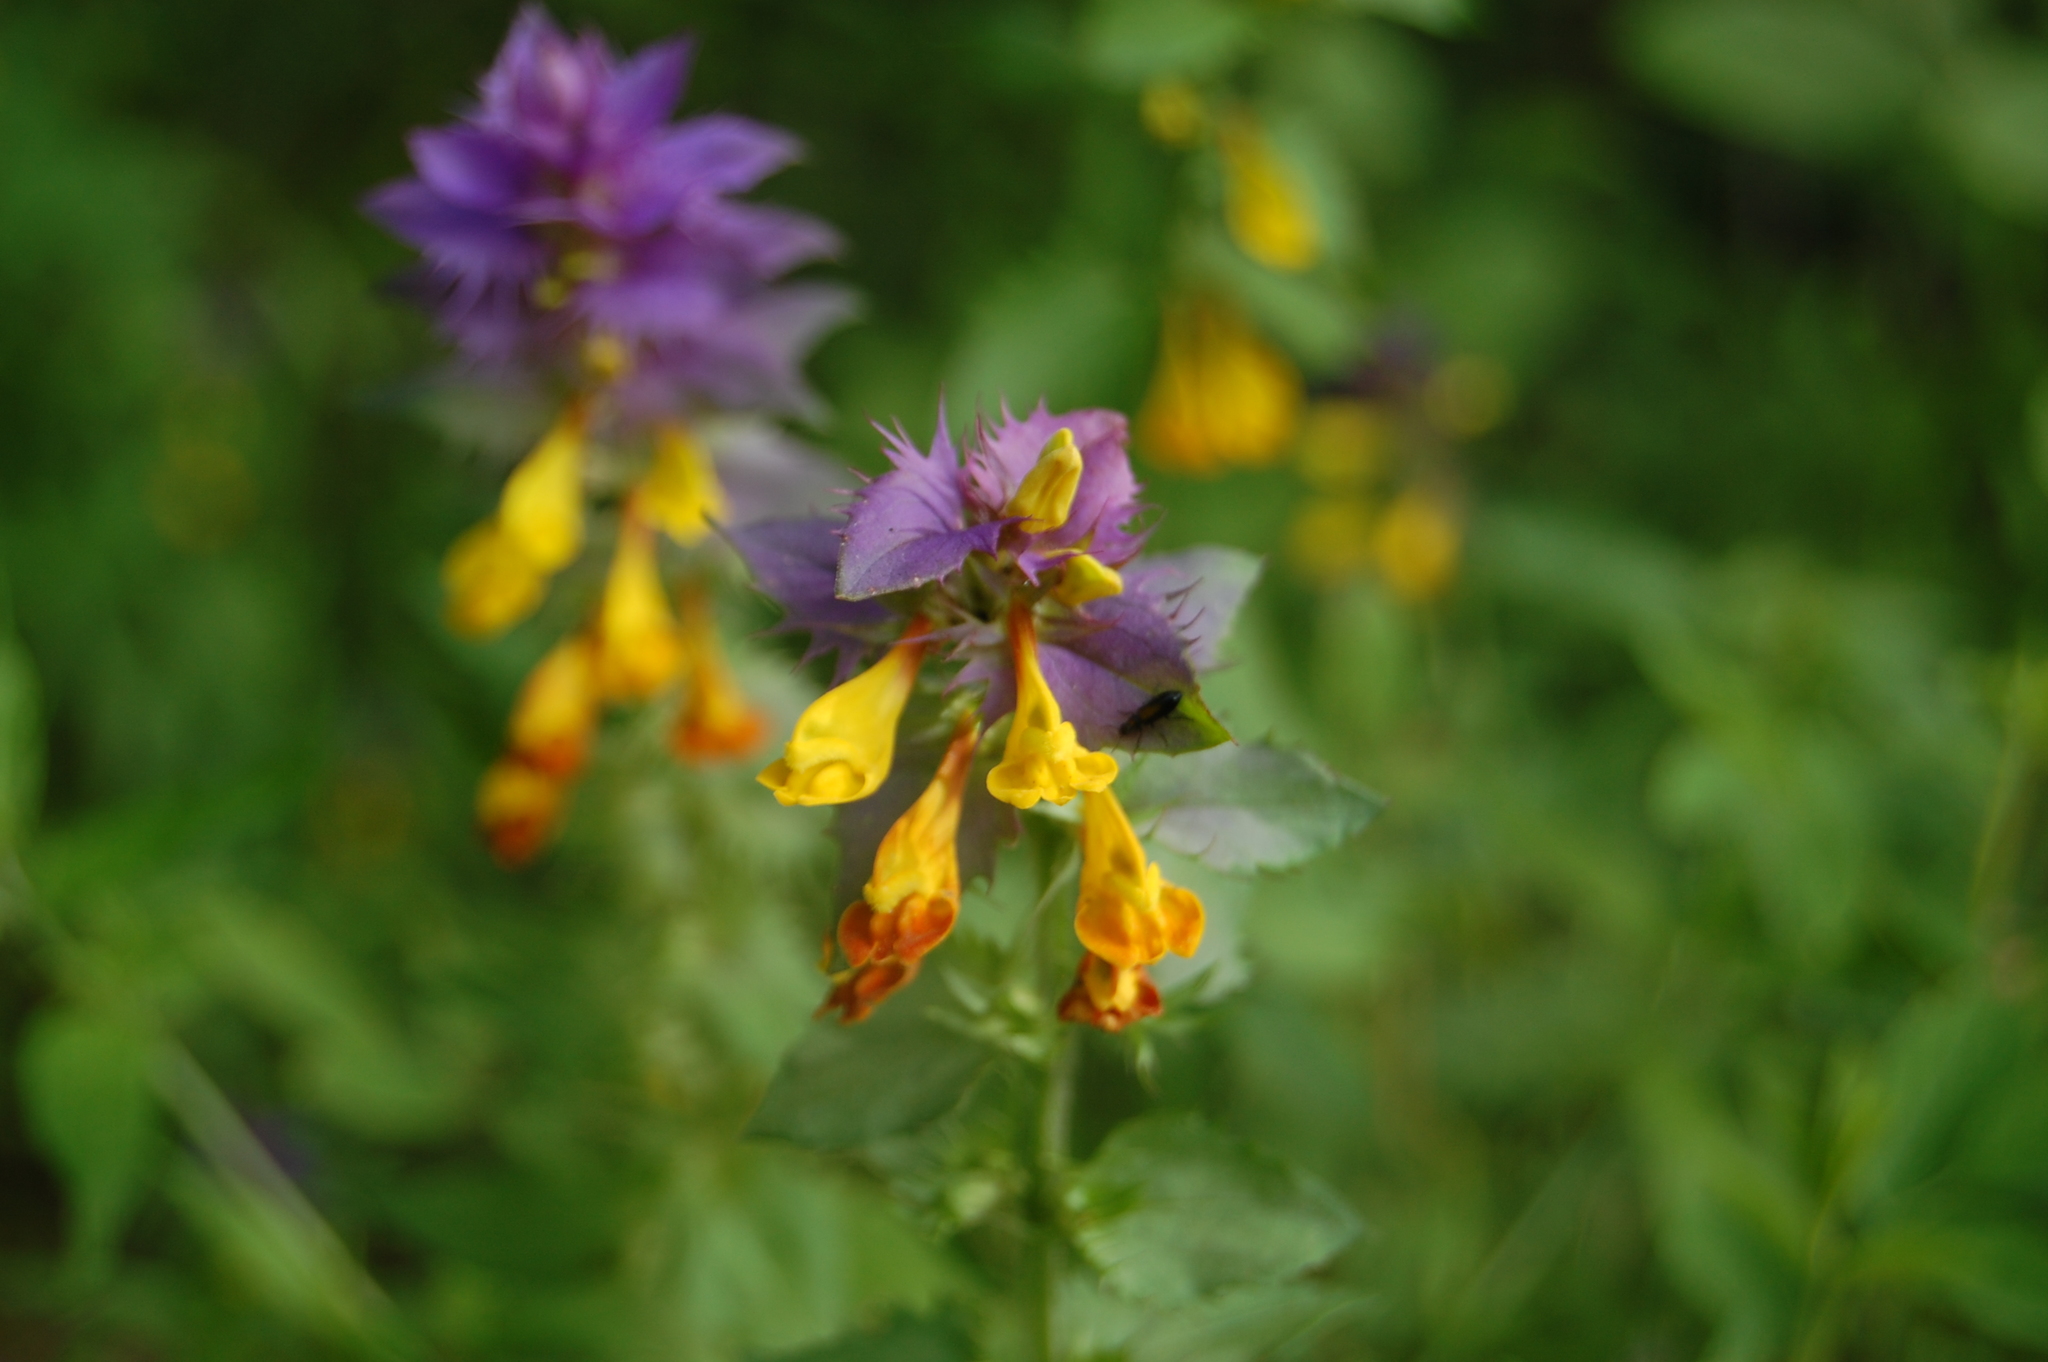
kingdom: Plantae
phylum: Tracheophyta
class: Magnoliopsida
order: Lamiales
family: Orobanchaceae
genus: Melampyrum
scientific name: Melampyrum nemorosum
